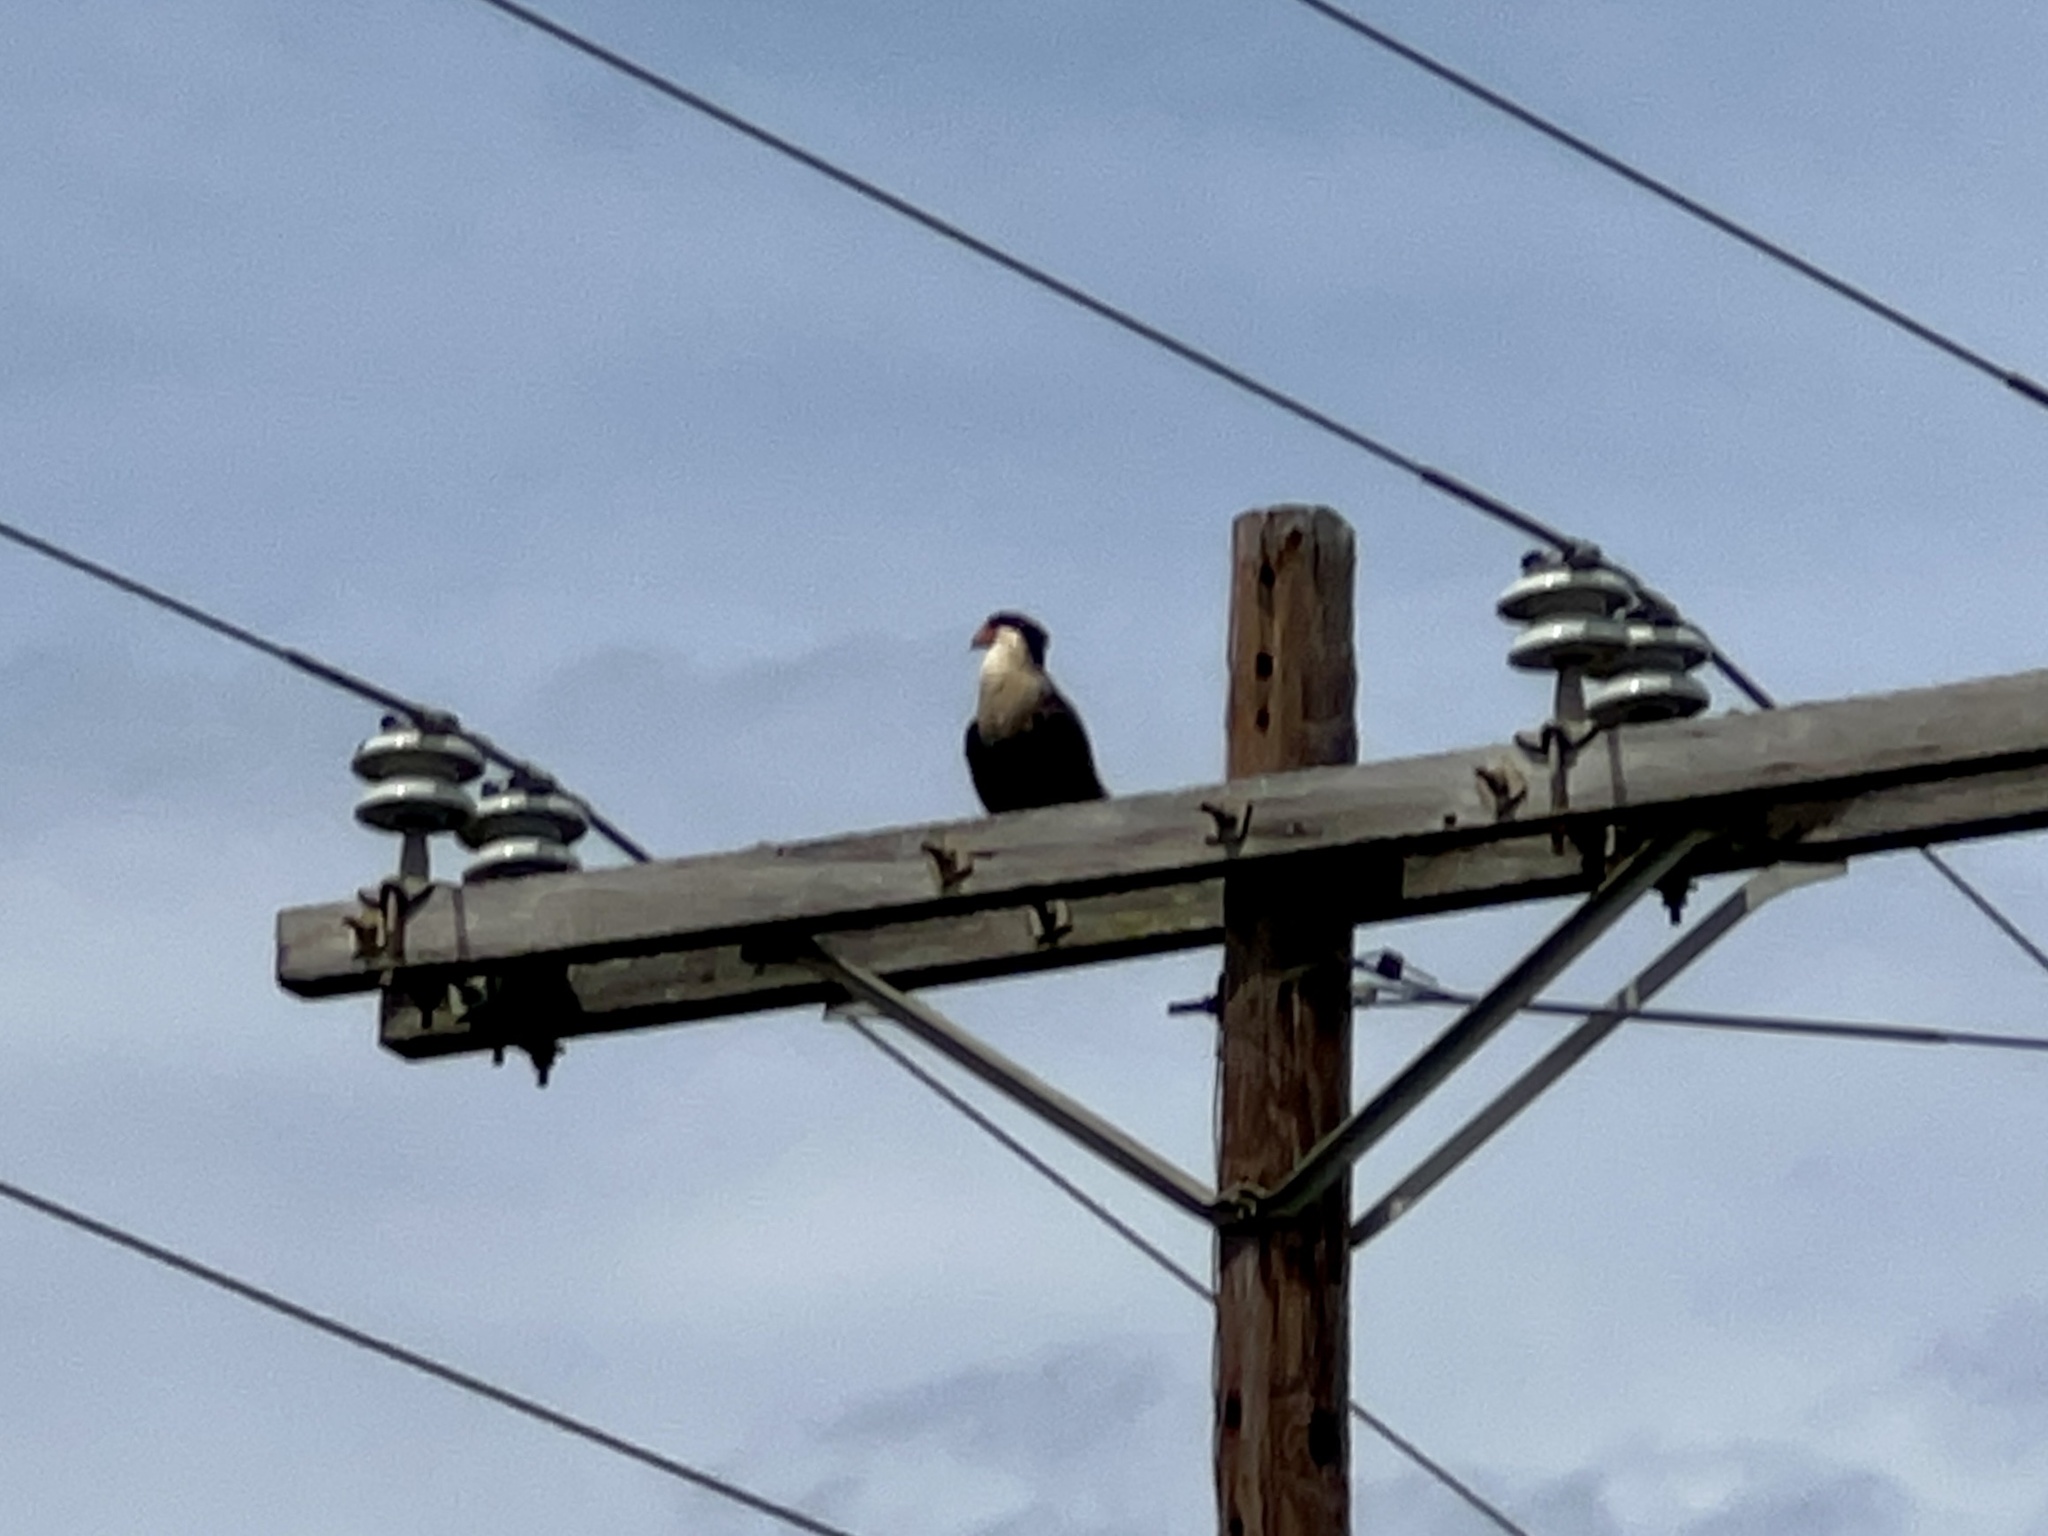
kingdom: Animalia
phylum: Chordata
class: Aves
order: Falconiformes
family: Falconidae
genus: Caracara
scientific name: Caracara plancus
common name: Southern caracara
